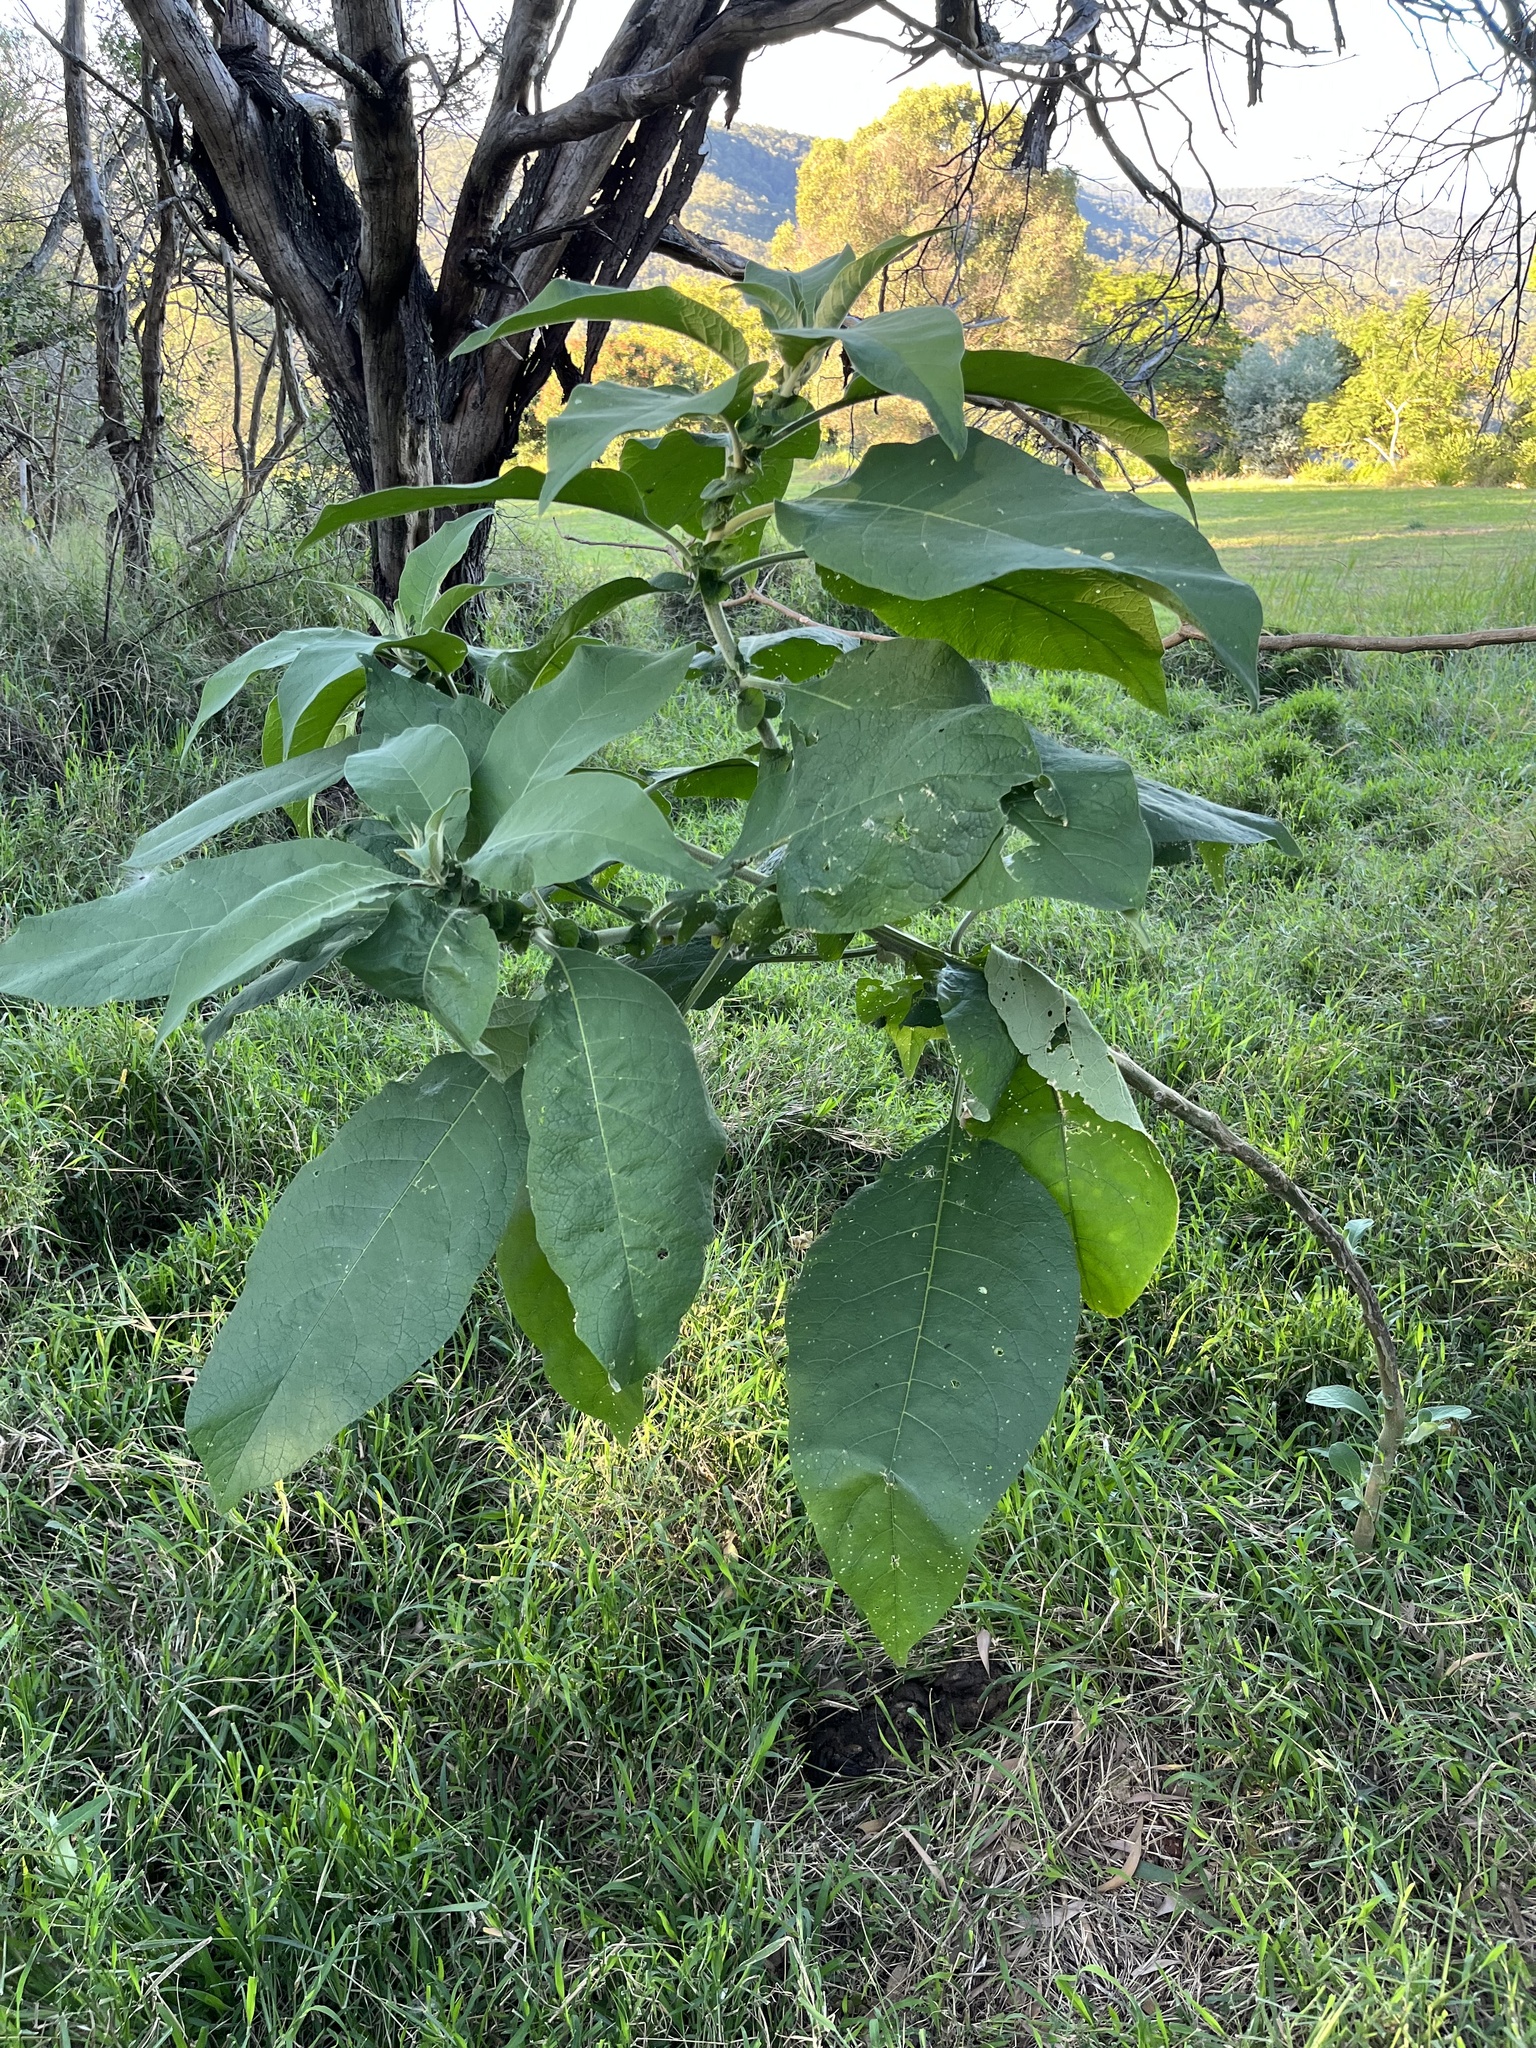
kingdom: Plantae
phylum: Tracheophyta
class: Magnoliopsida
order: Solanales
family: Solanaceae
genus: Solanum
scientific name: Solanum mauritianum
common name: Earleaf nightshade
